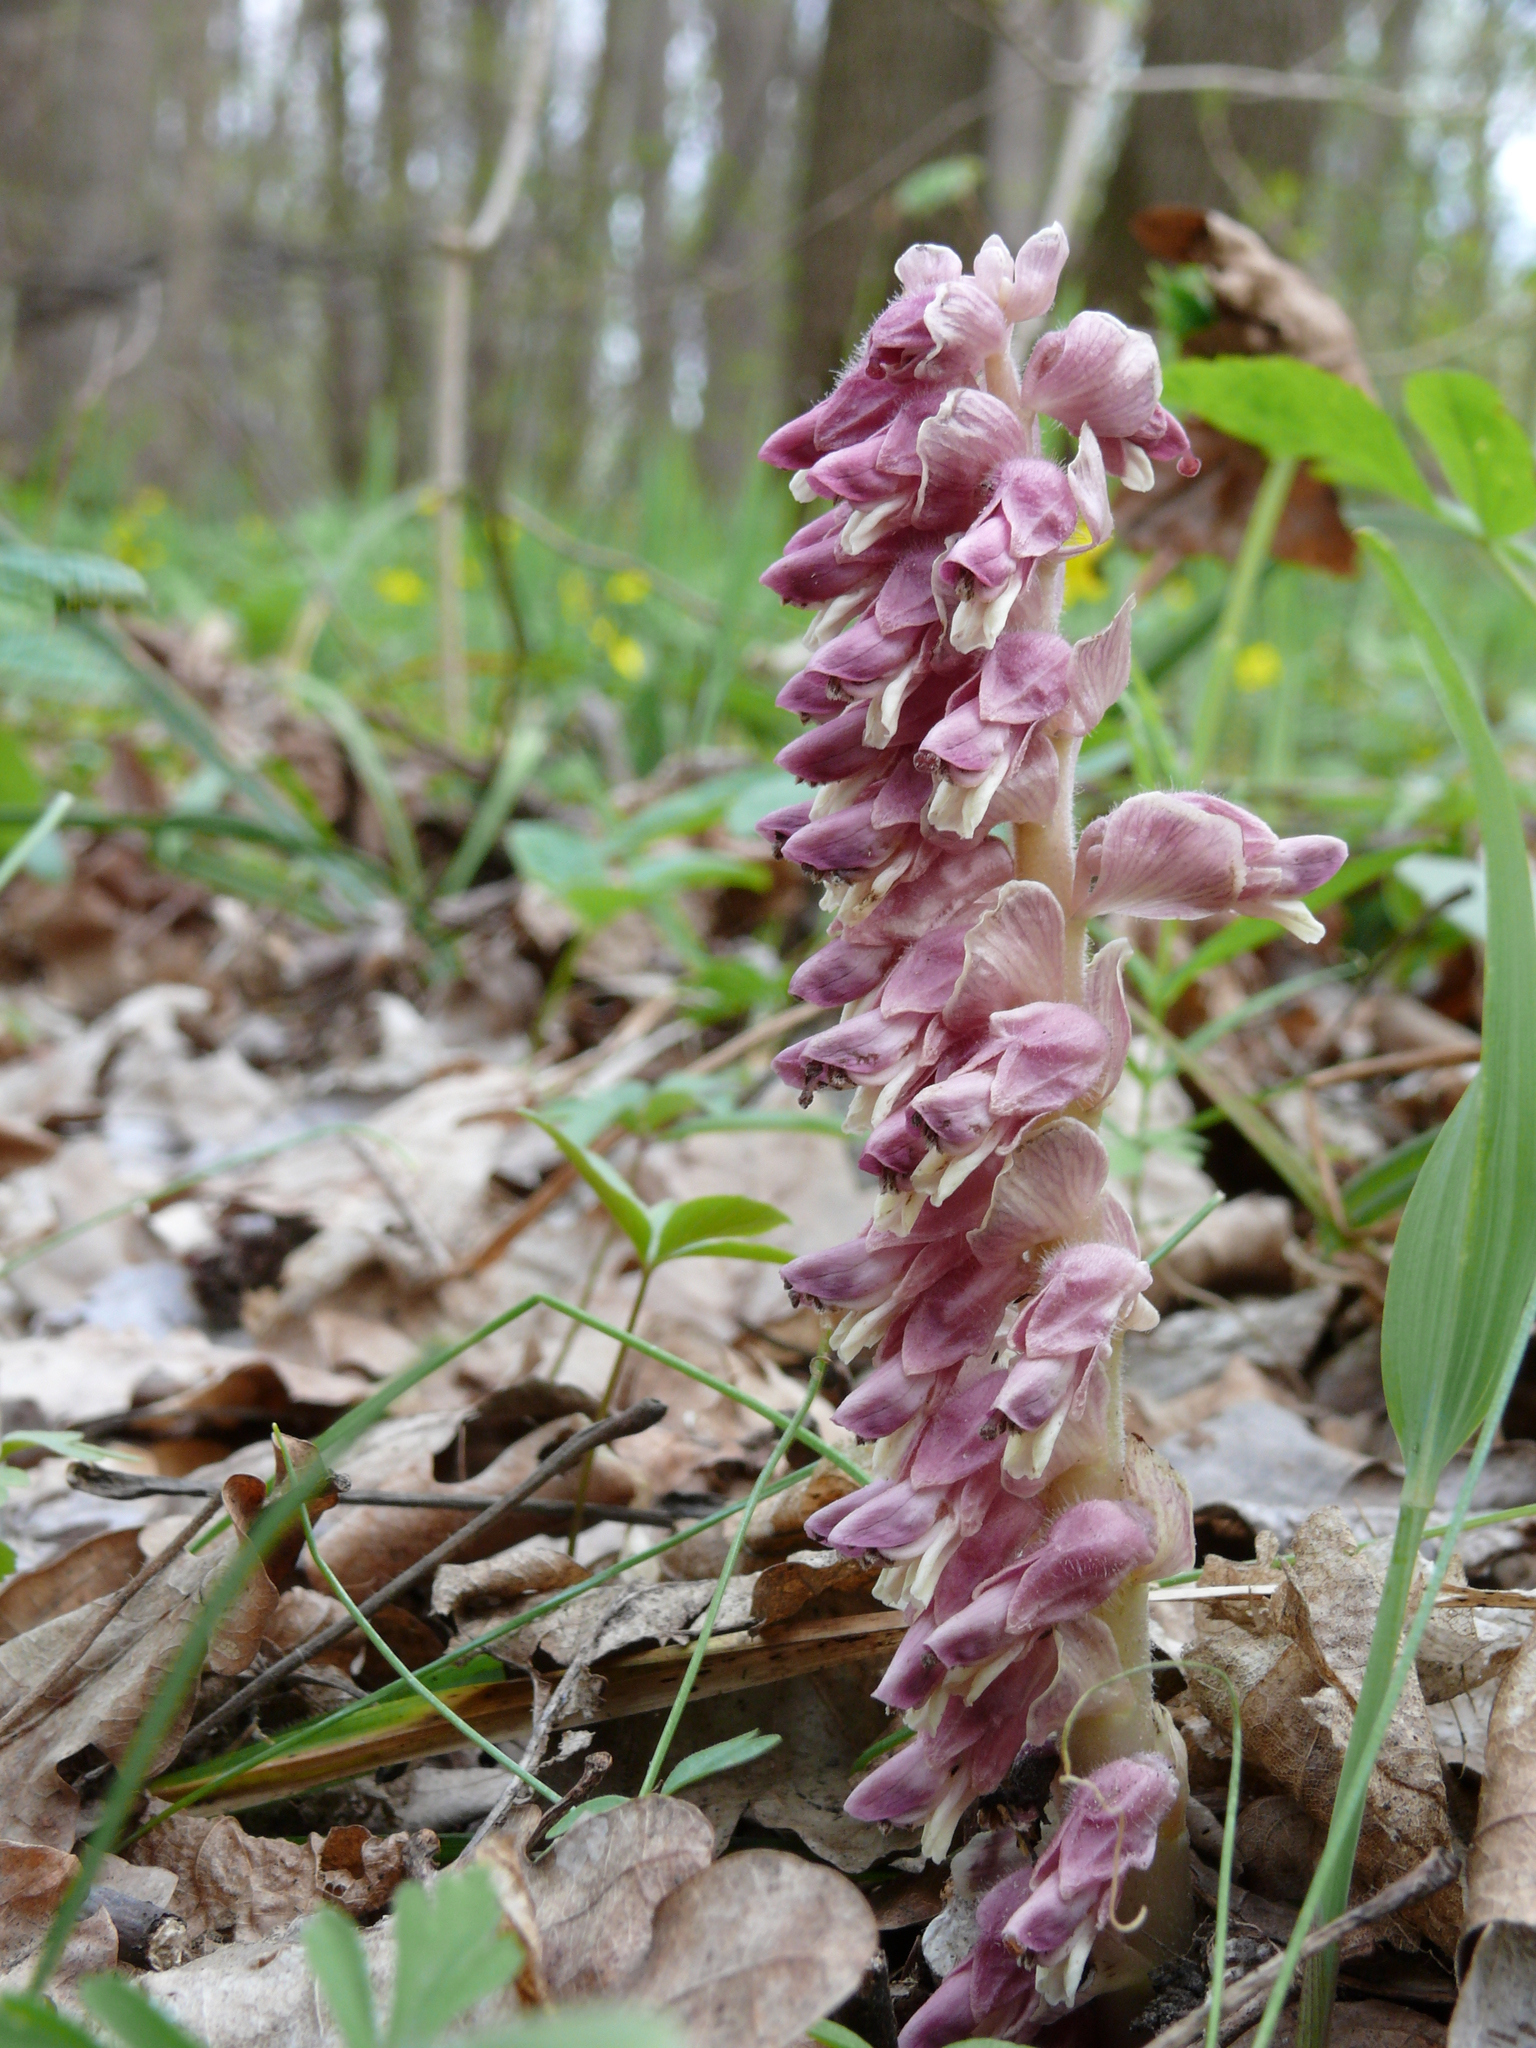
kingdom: Plantae
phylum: Tracheophyta
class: Magnoliopsida
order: Lamiales
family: Orobanchaceae
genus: Lathraea
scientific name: Lathraea squamaria
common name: Toothwort
